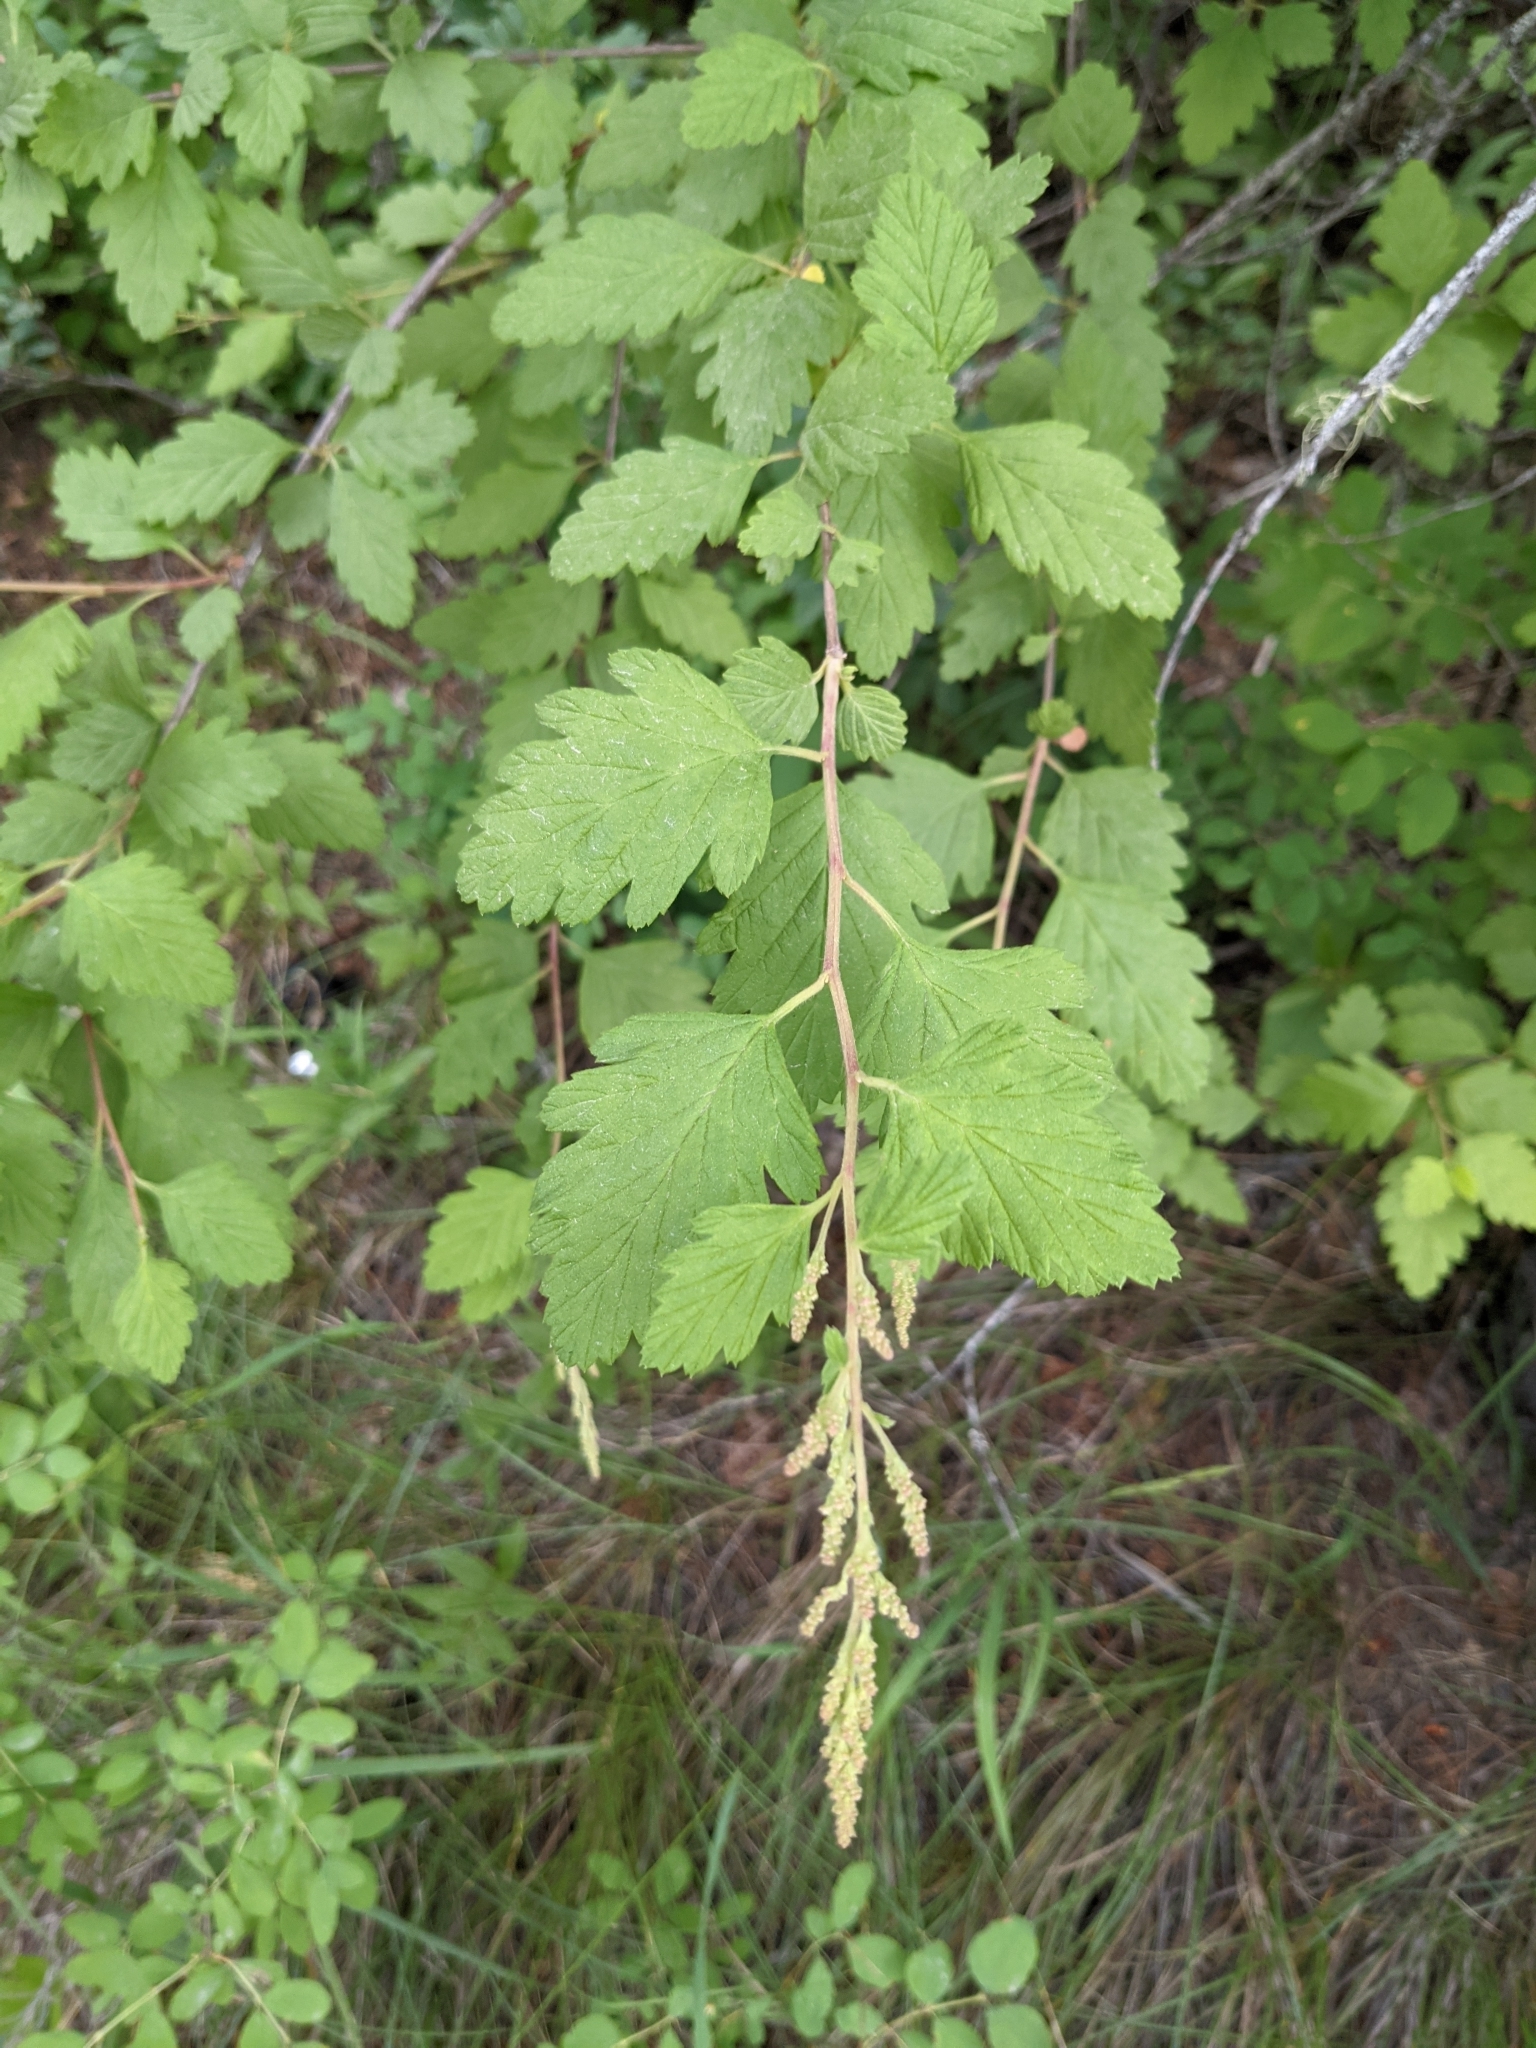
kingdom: Plantae
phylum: Tracheophyta
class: Magnoliopsida
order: Rosales
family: Rosaceae
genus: Holodiscus
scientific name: Holodiscus discolor
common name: Oceanspray
